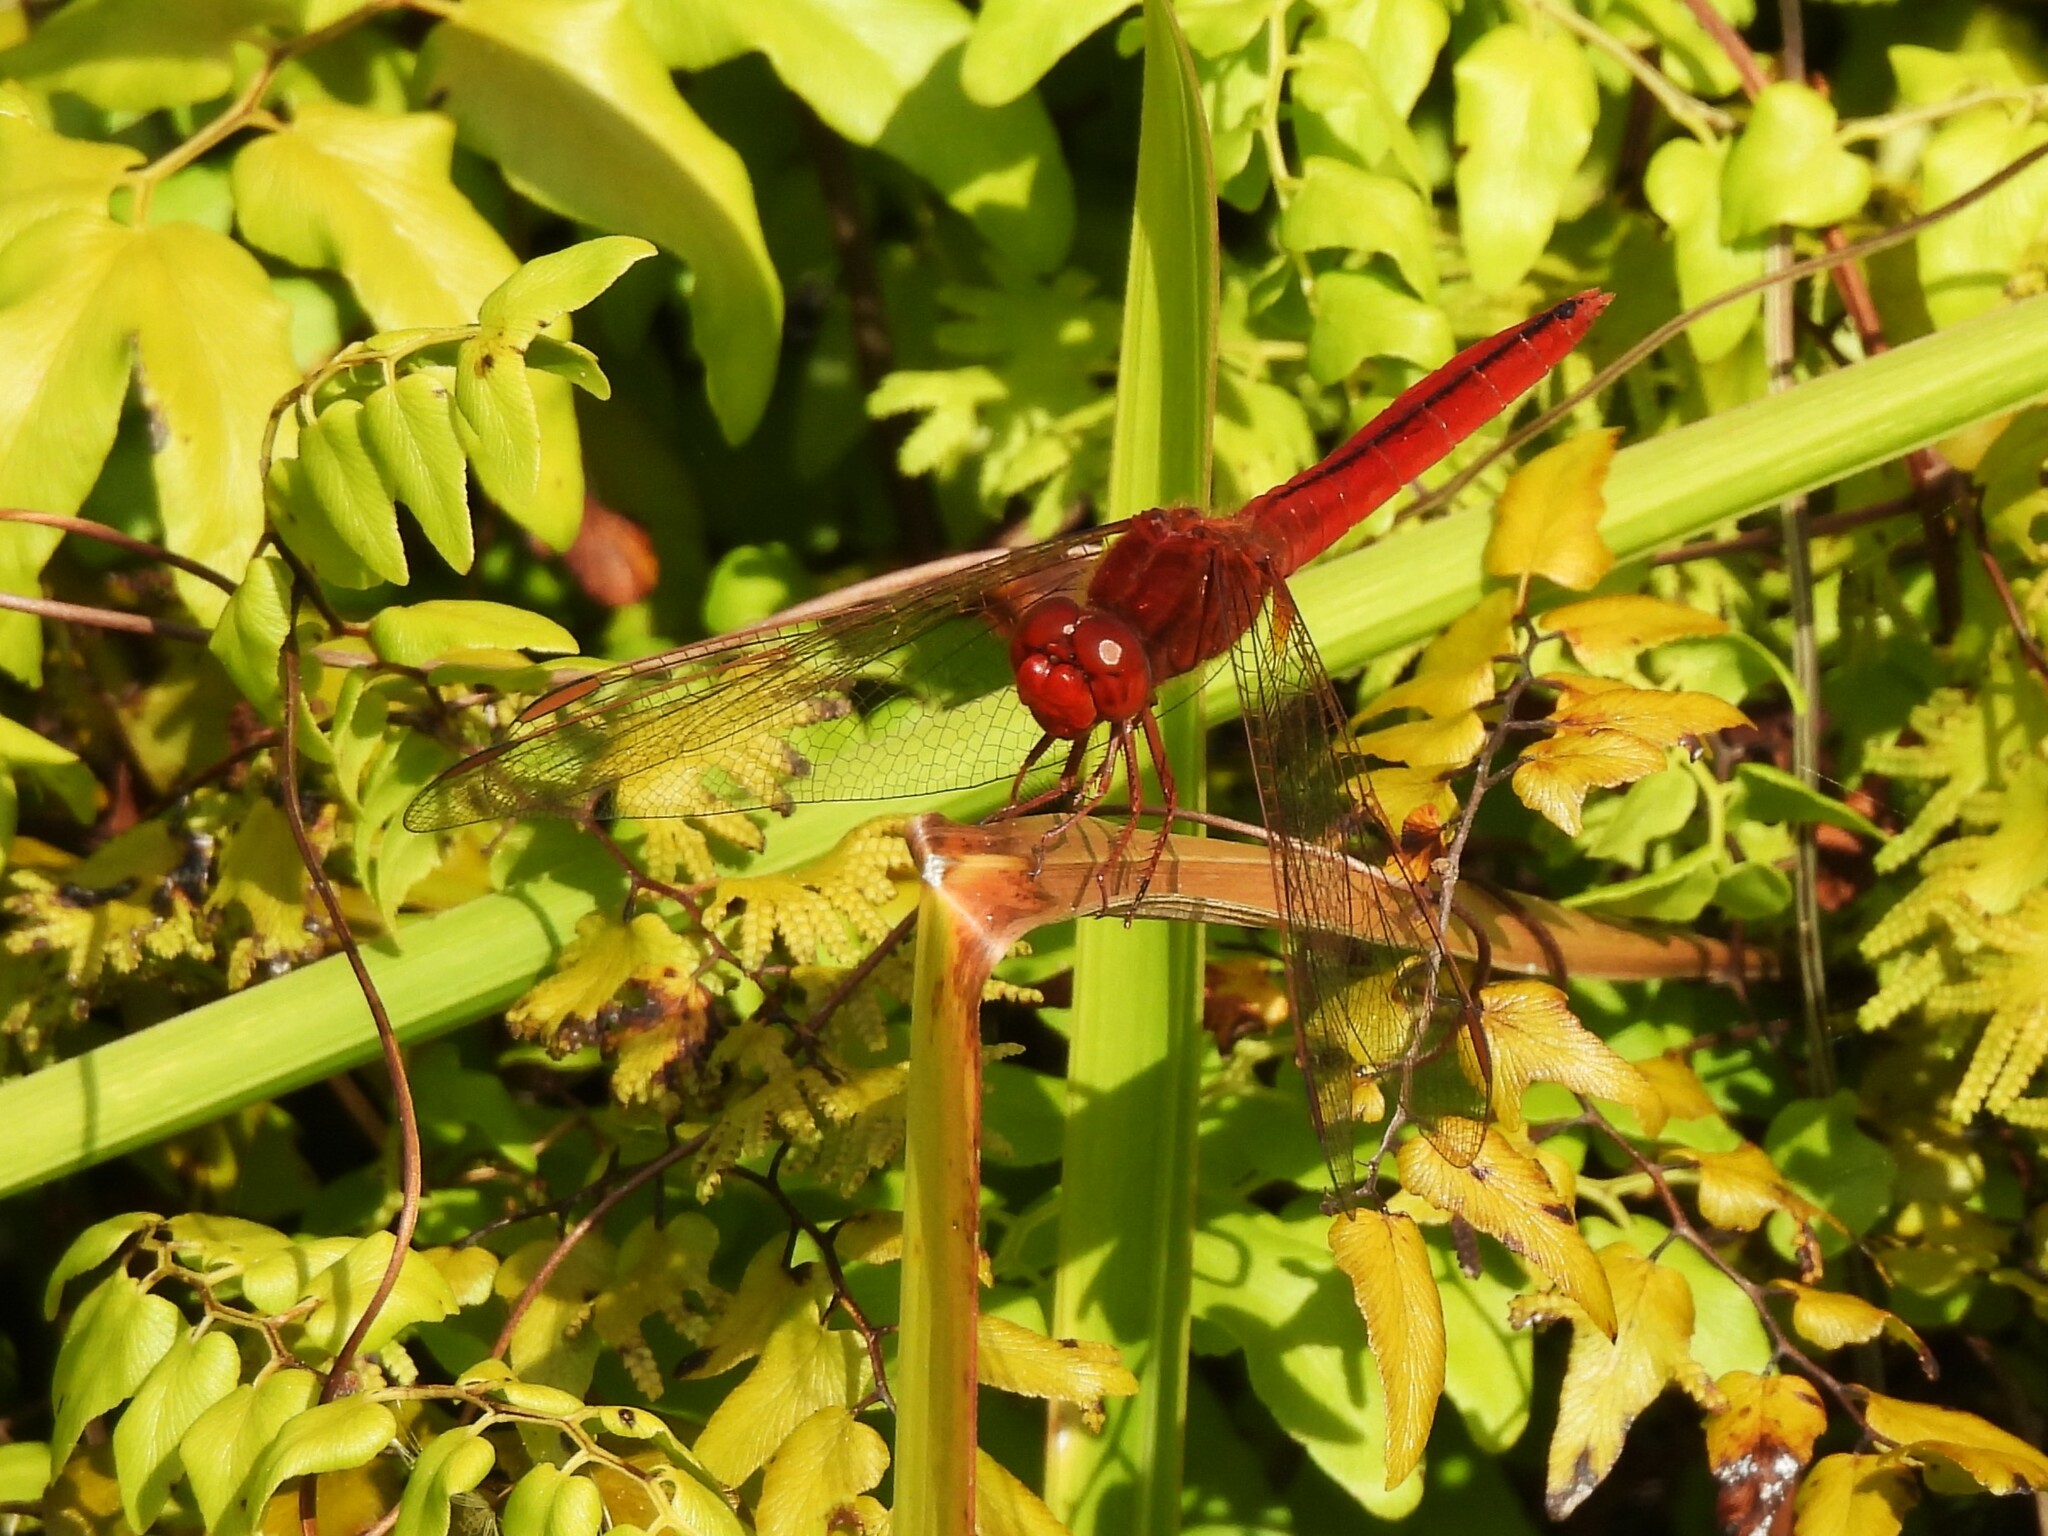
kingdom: Animalia
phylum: Arthropoda
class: Insecta
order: Odonata
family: Libellulidae
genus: Crocothemis
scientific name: Crocothemis servilia
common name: Scarlet skimmer
